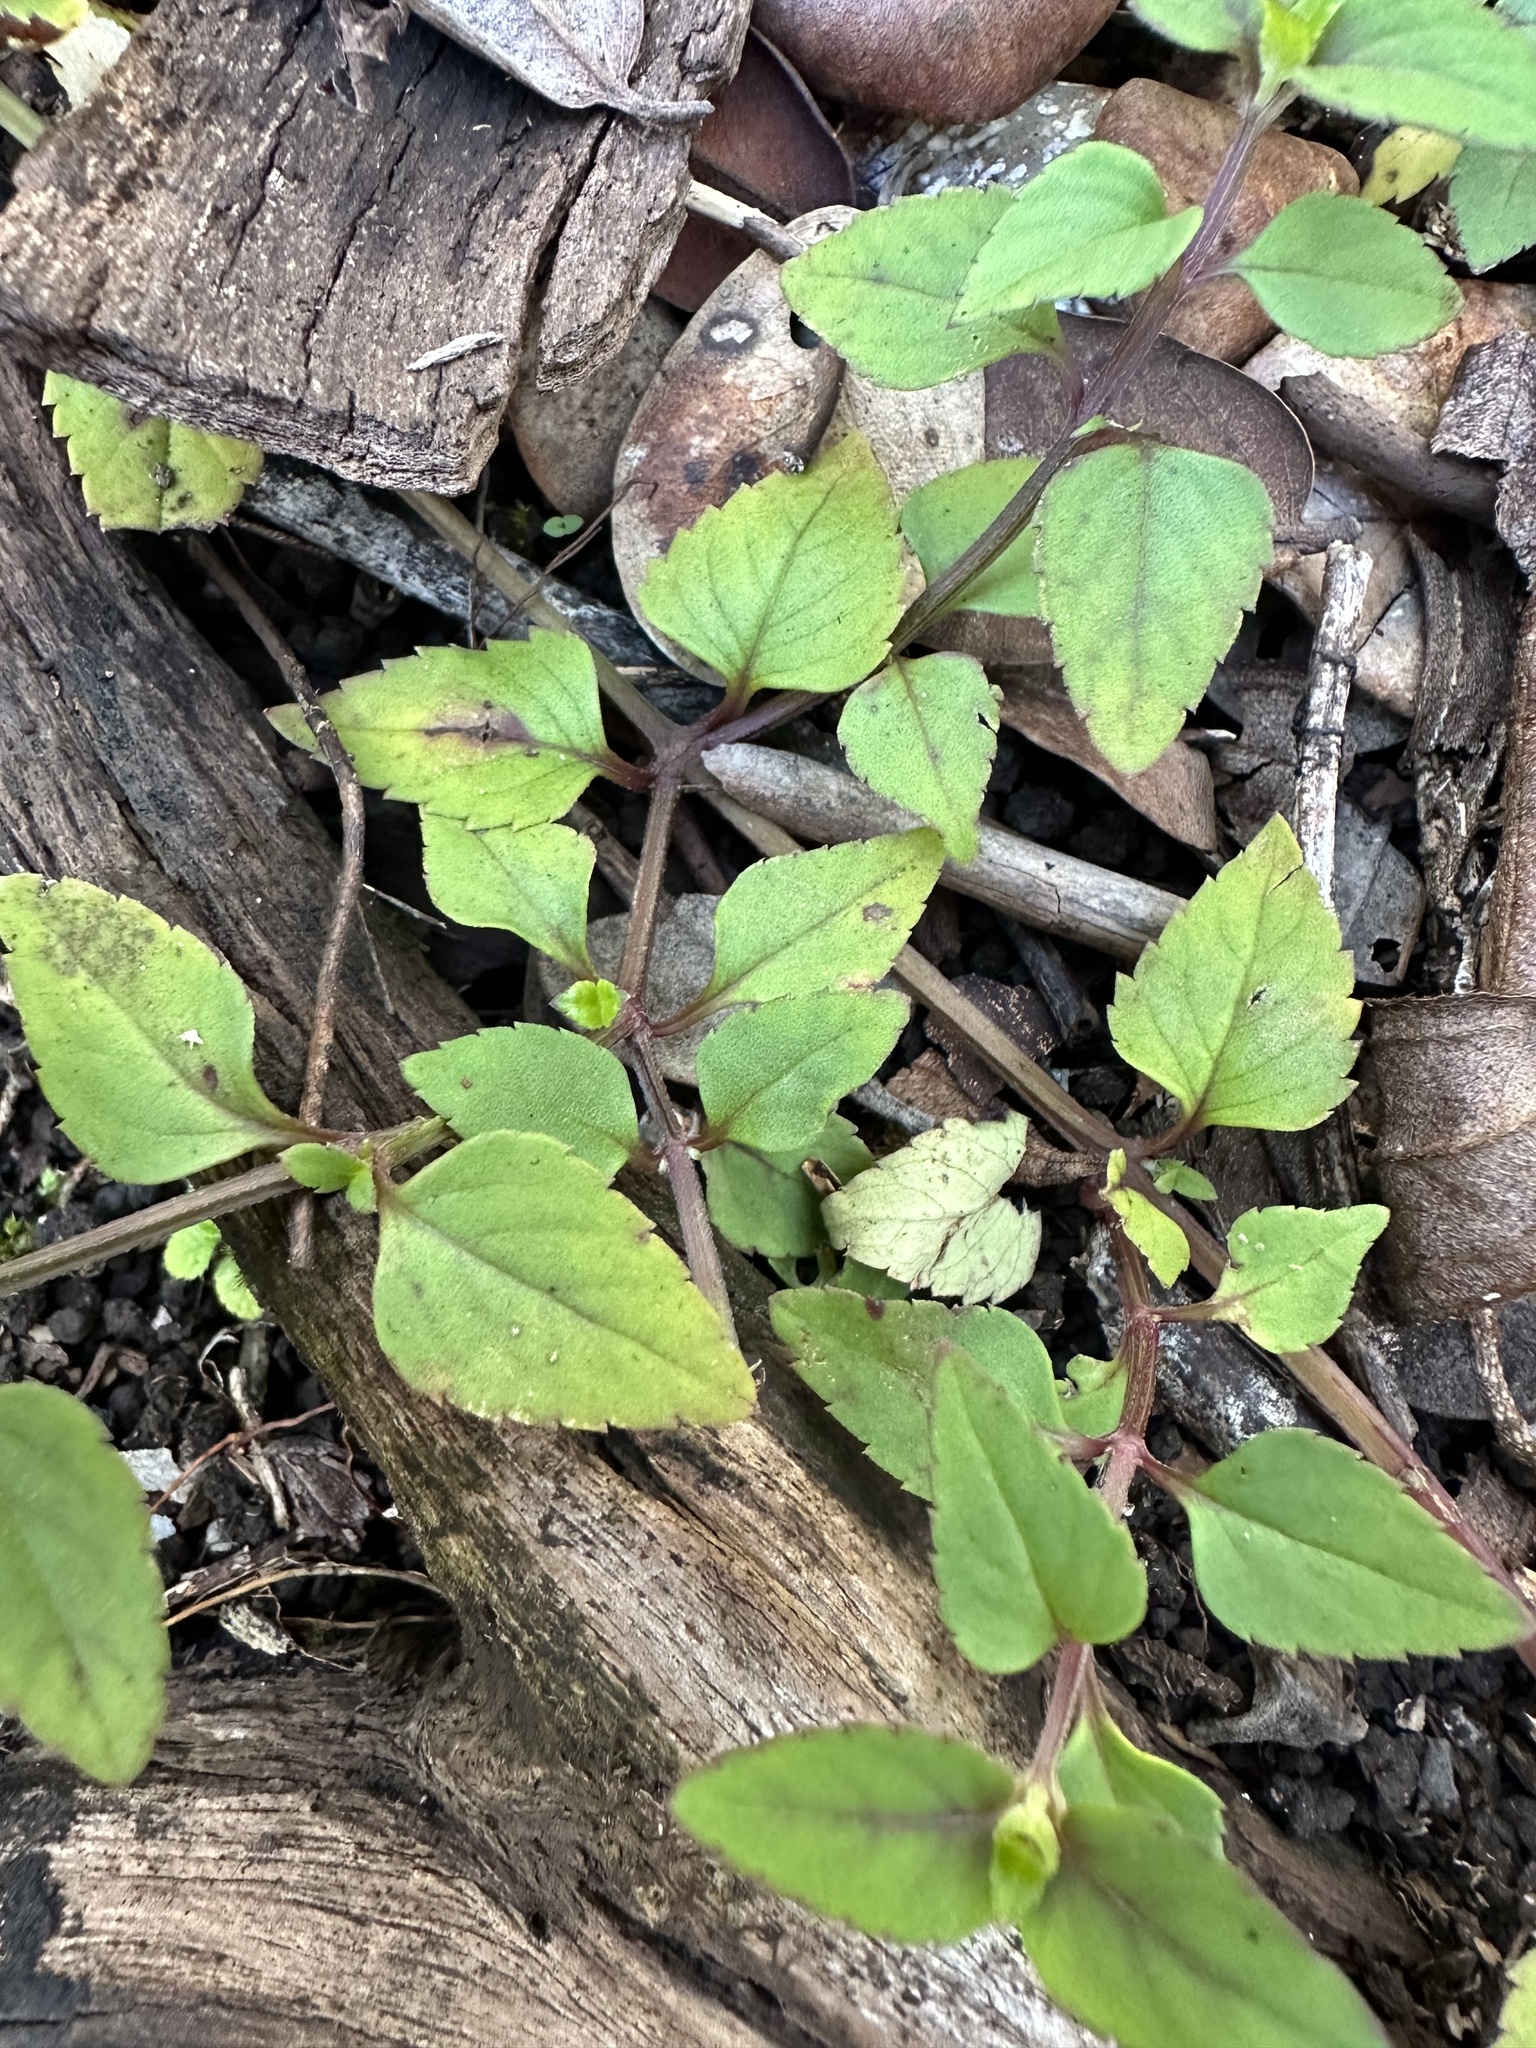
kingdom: Plantae
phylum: Tracheophyta
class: Magnoliopsida
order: Lamiales
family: Linderniaceae
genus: Torenia
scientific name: Torenia asiatica
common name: Wishbone flower
